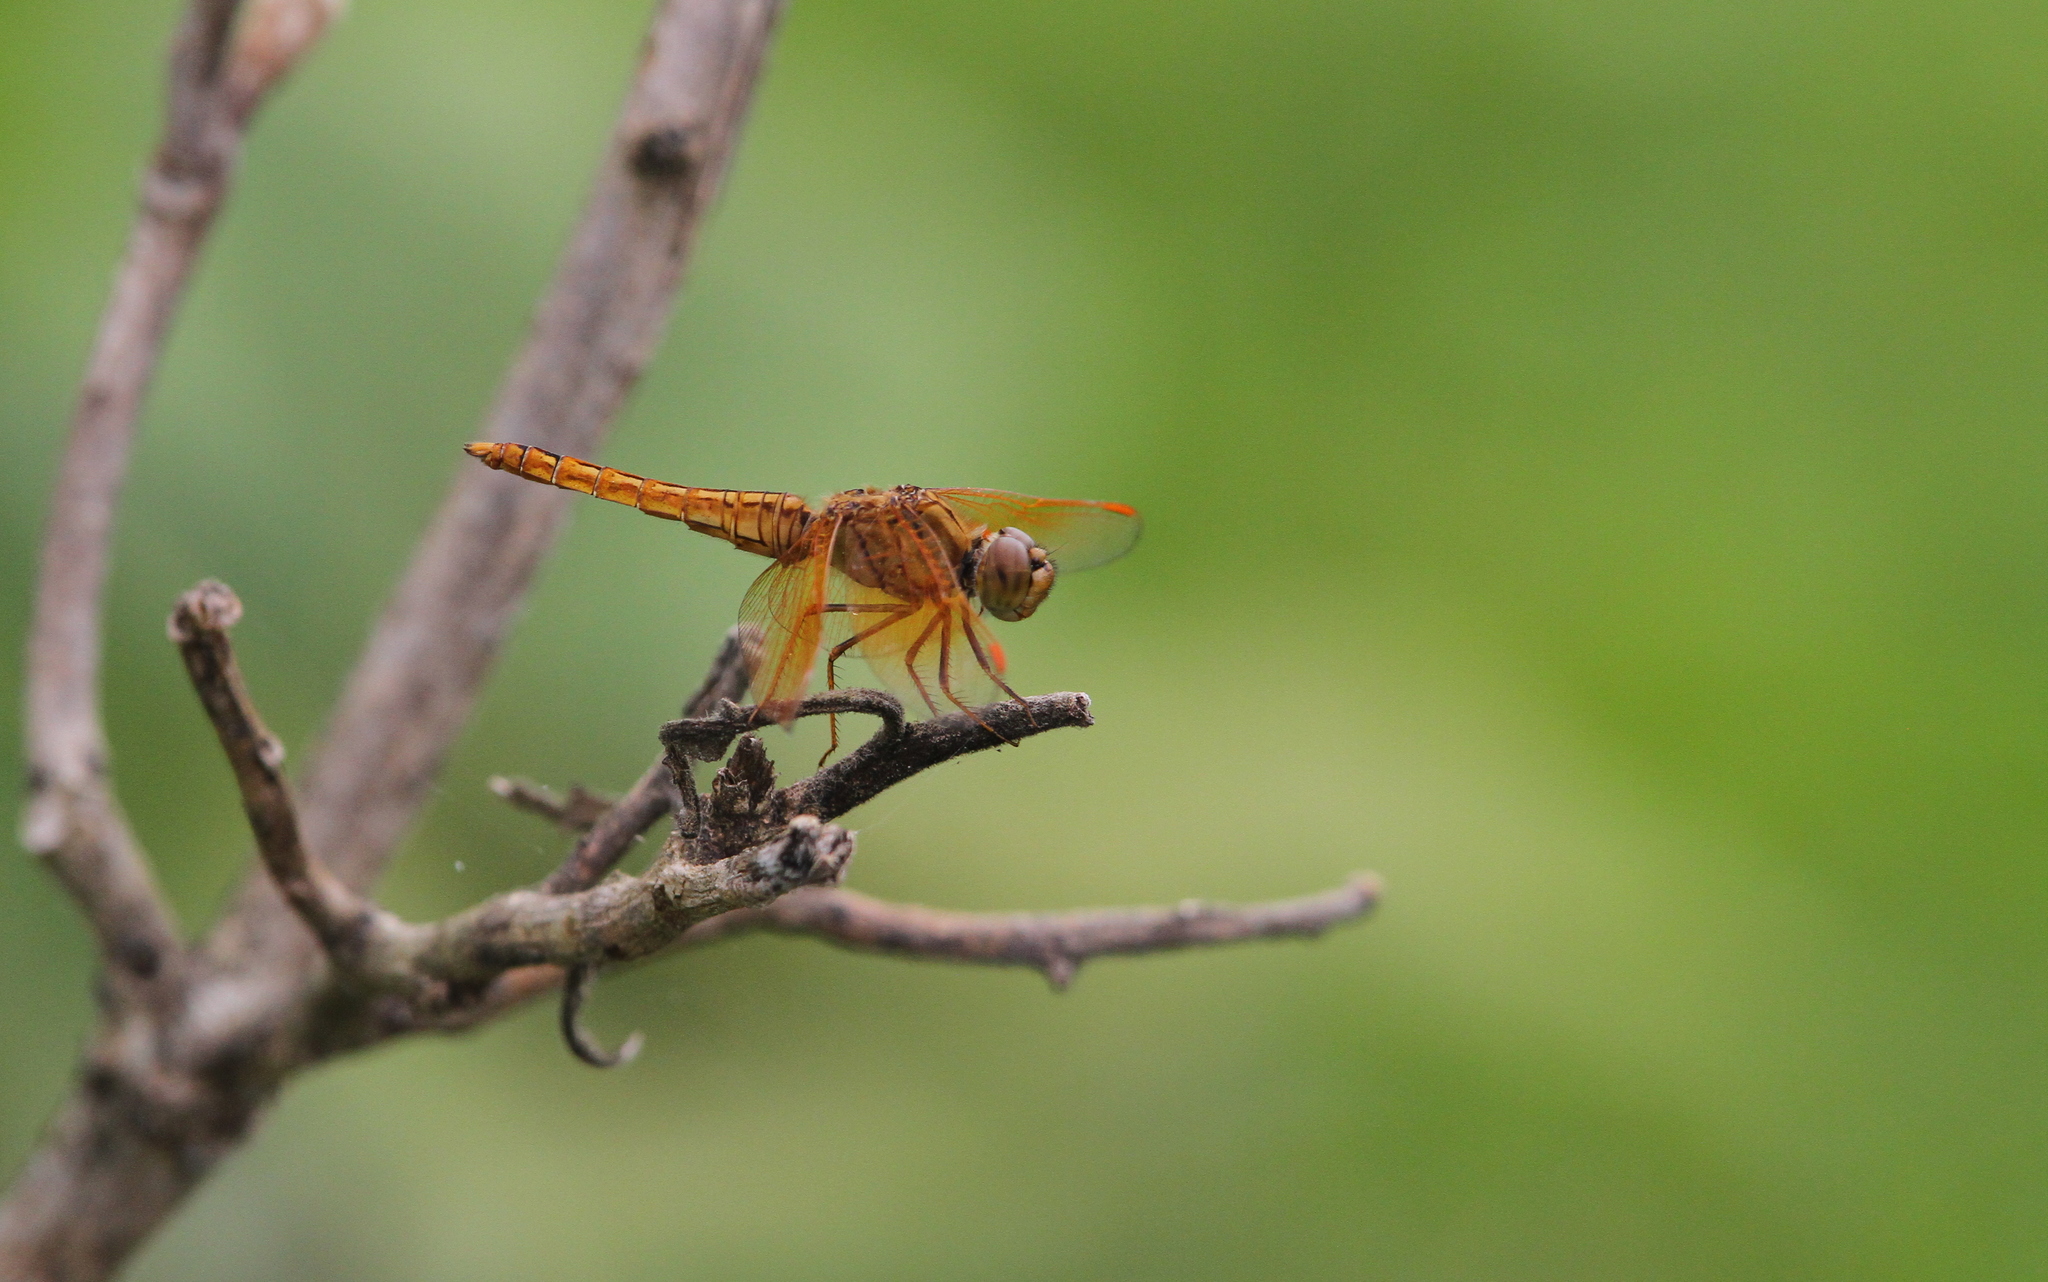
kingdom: Animalia
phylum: Arthropoda
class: Insecta
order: Odonata
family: Libellulidae
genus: Brachythemis
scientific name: Brachythemis contaminata
